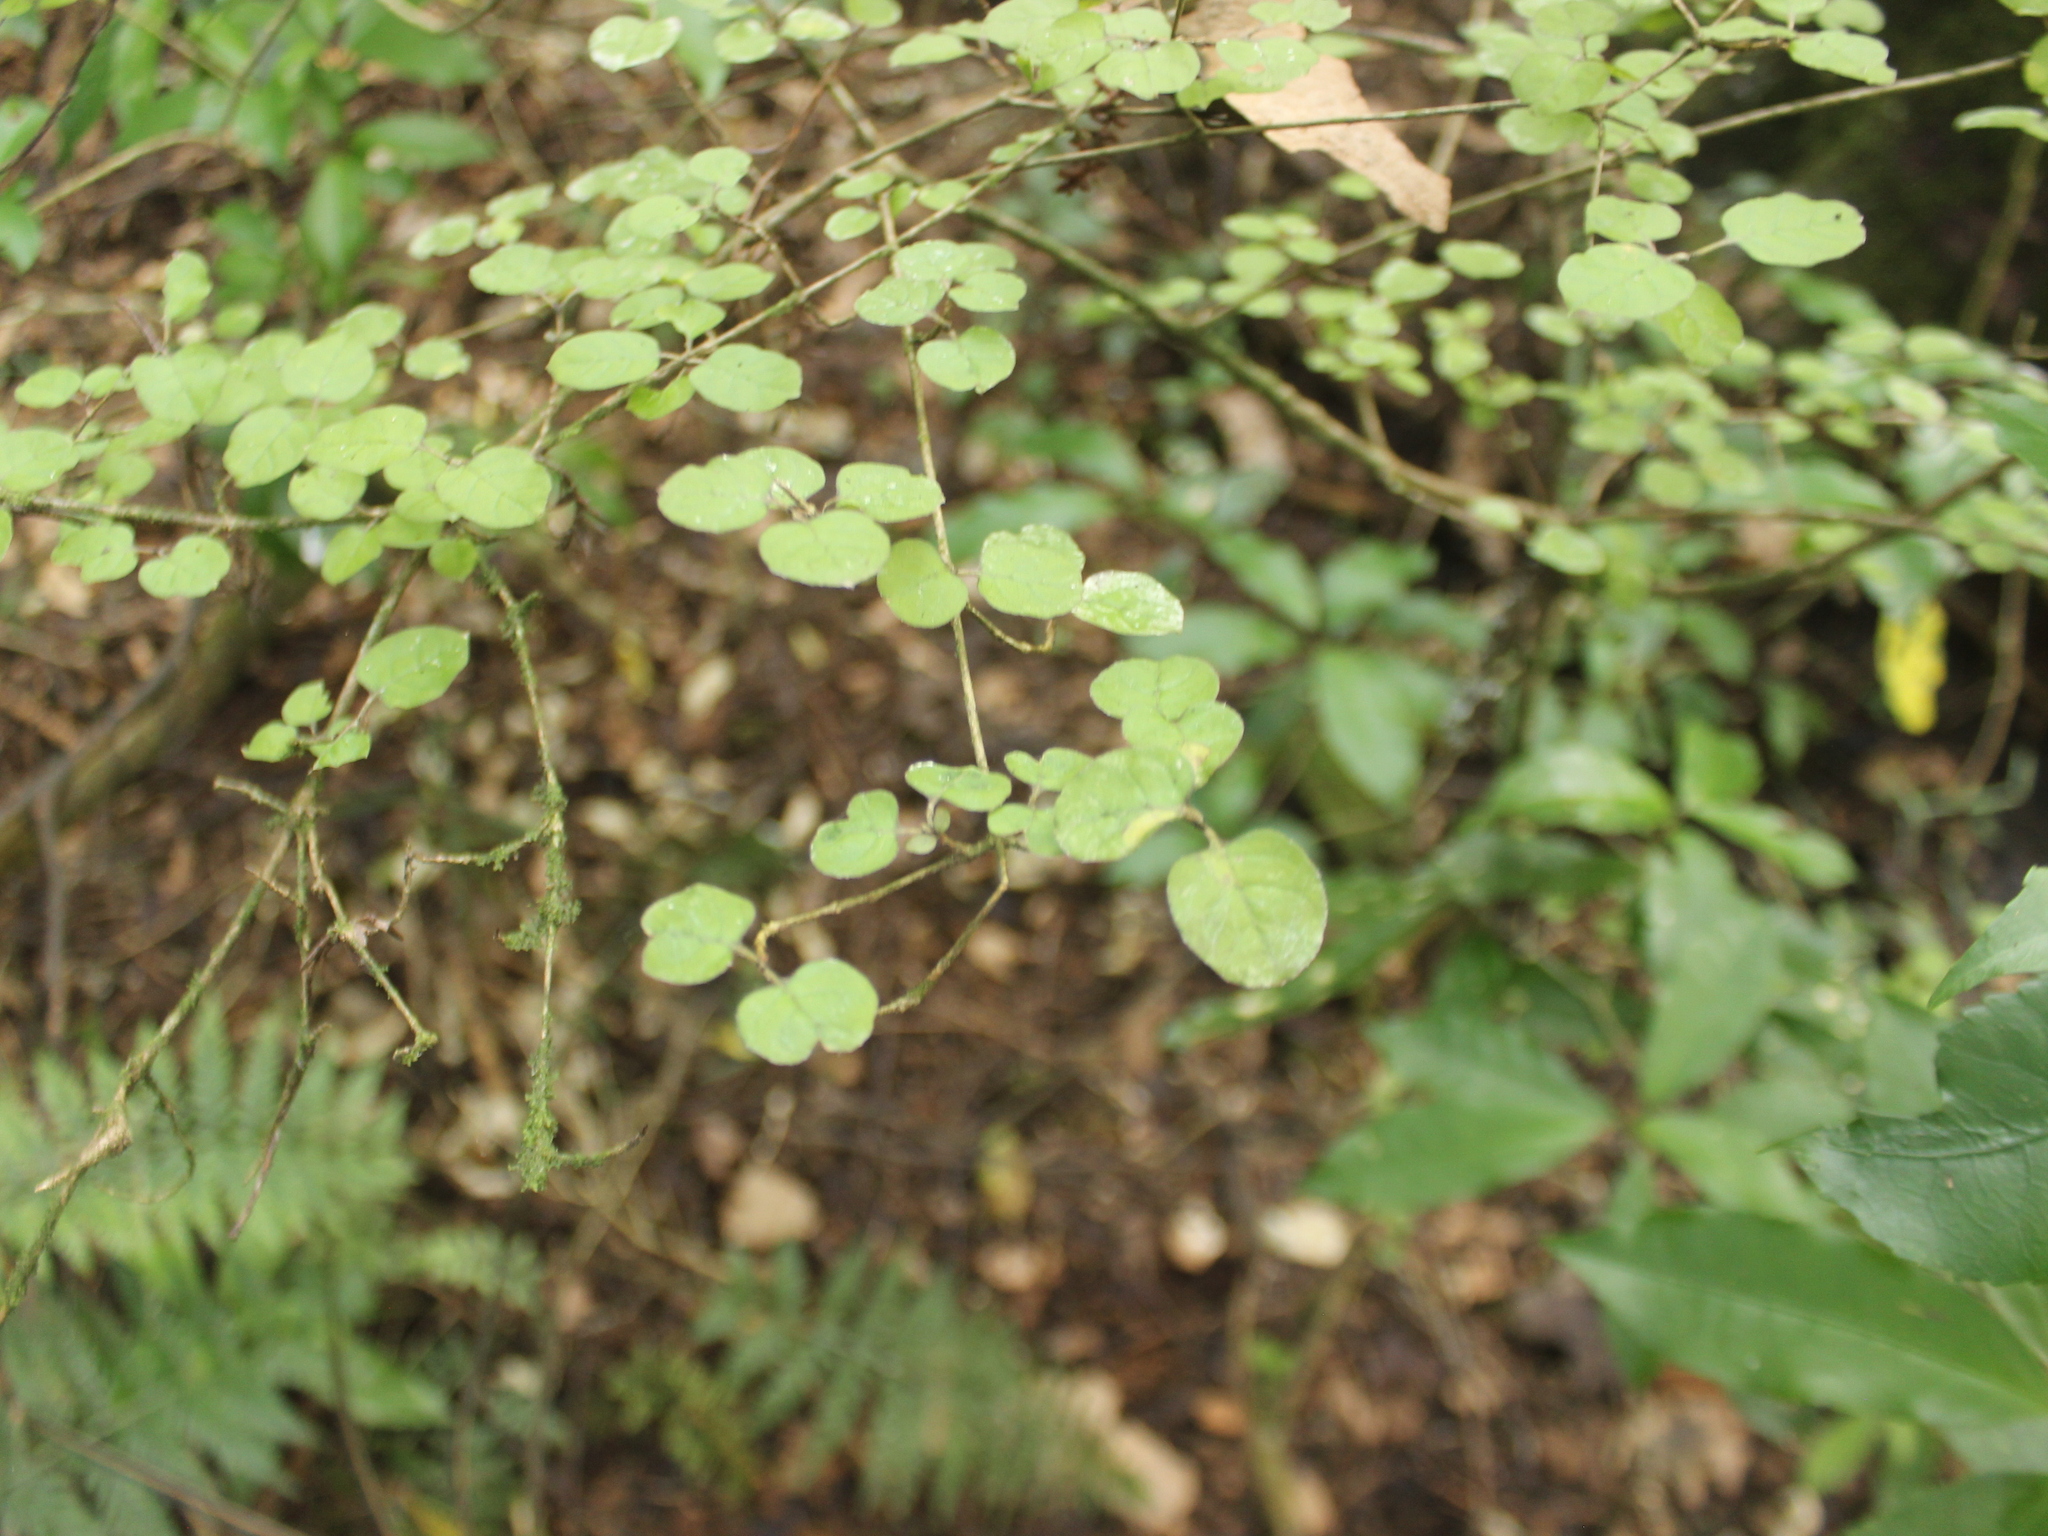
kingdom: Plantae
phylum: Tracheophyta
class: Magnoliopsida
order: Gentianales
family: Rubiaceae
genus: Coprosma
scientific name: Coprosma rotundifolia
